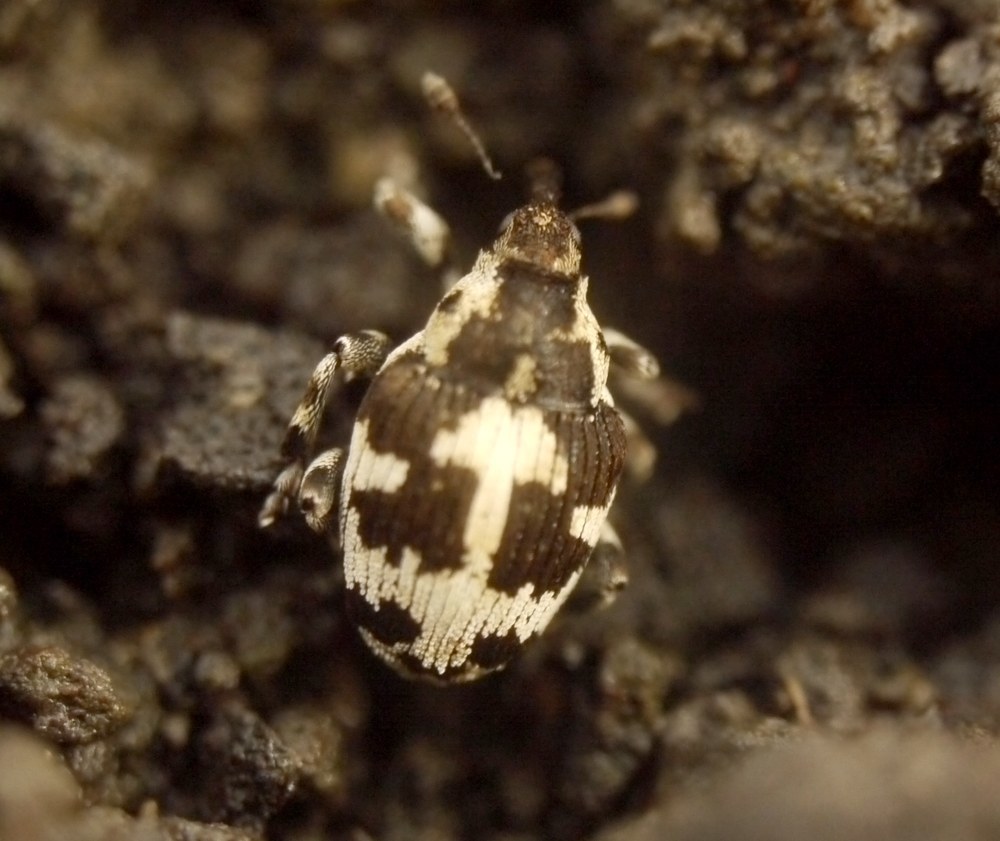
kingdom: Animalia
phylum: Arthropoda
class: Insecta
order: Coleoptera
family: Curculionidae
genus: Thamiocolus
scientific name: Thamiocolus sinapis
